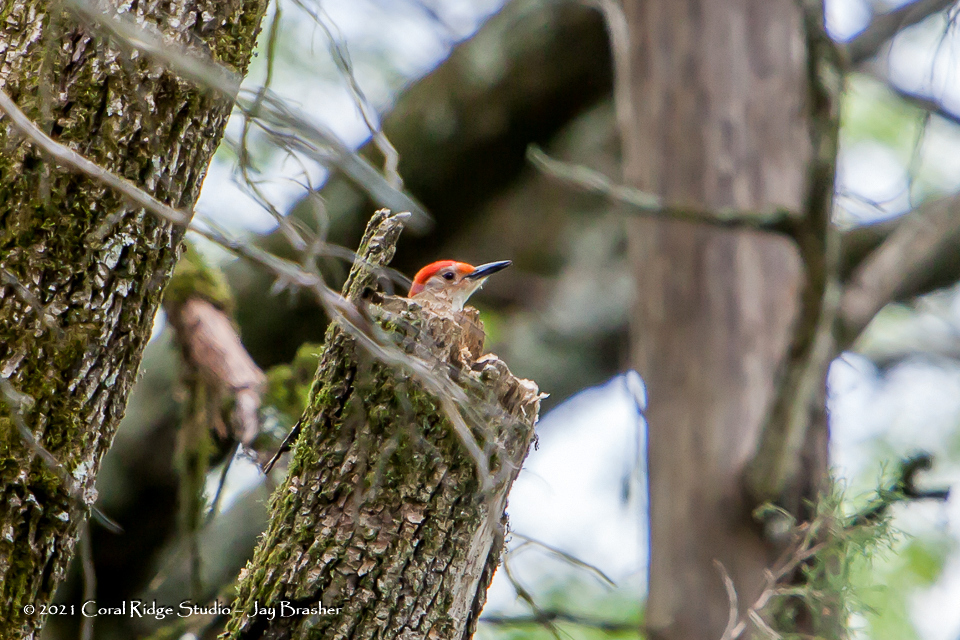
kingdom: Animalia
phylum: Chordata
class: Aves
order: Piciformes
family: Picidae
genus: Melanerpes
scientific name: Melanerpes carolinus
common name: Red-bellied woodpecker
